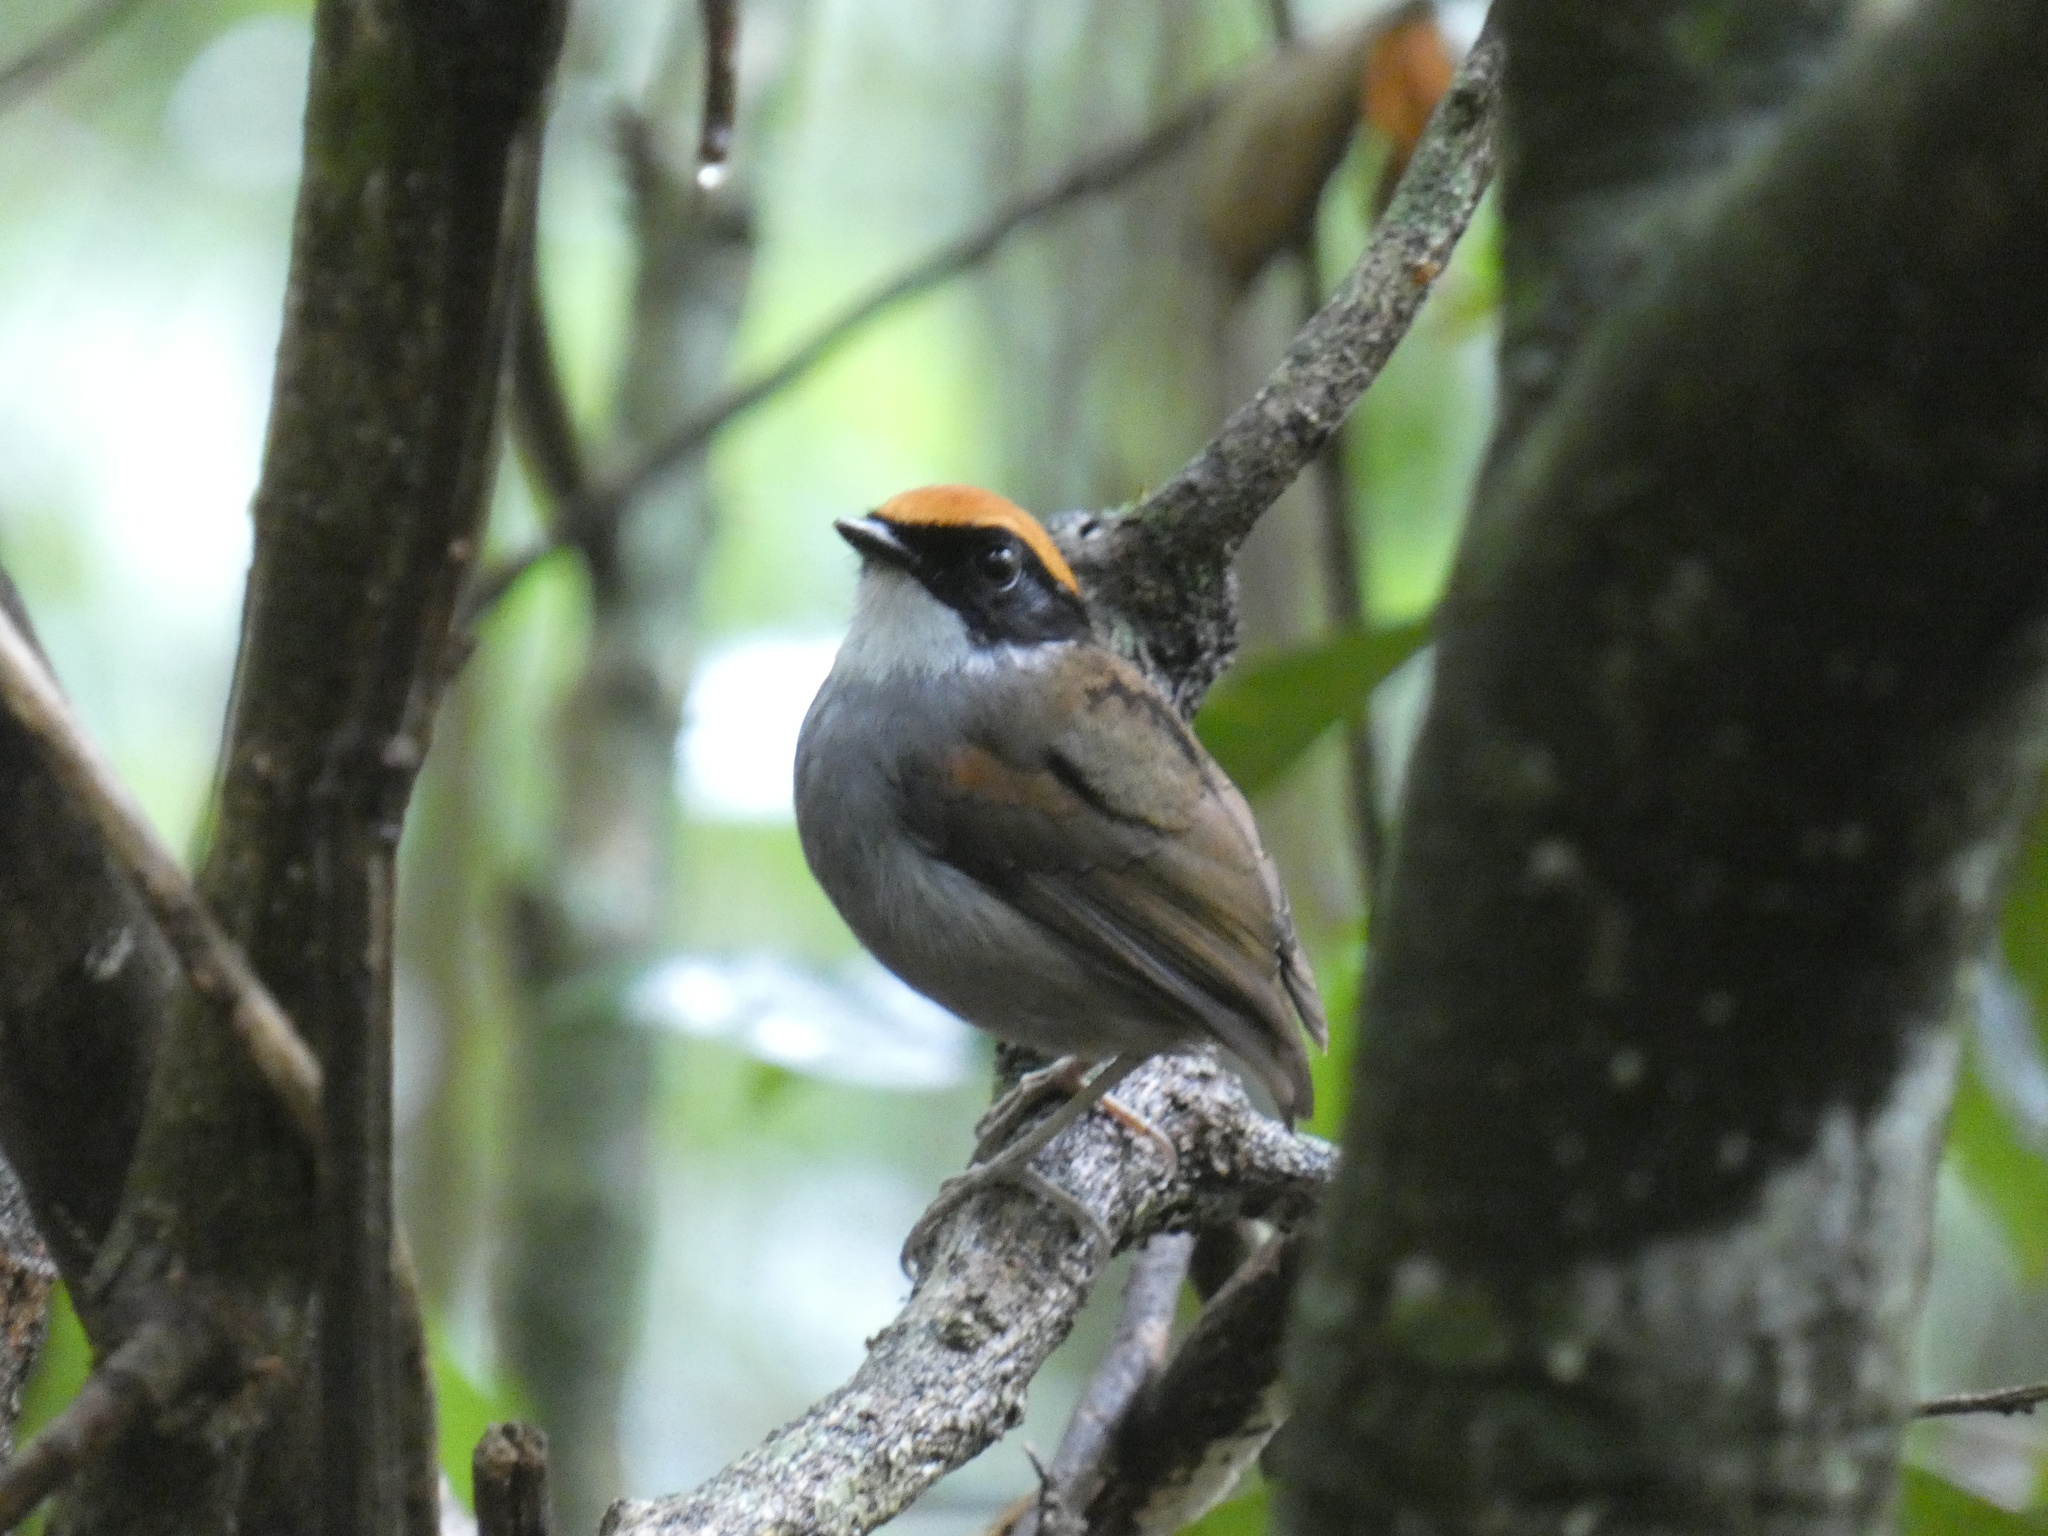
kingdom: Animalia
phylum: Chordata
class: Aves
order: Passeriformes
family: Conopophagidae
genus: Conopophaga
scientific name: Conopophaga melanops
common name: Black-cheeked gnateater
